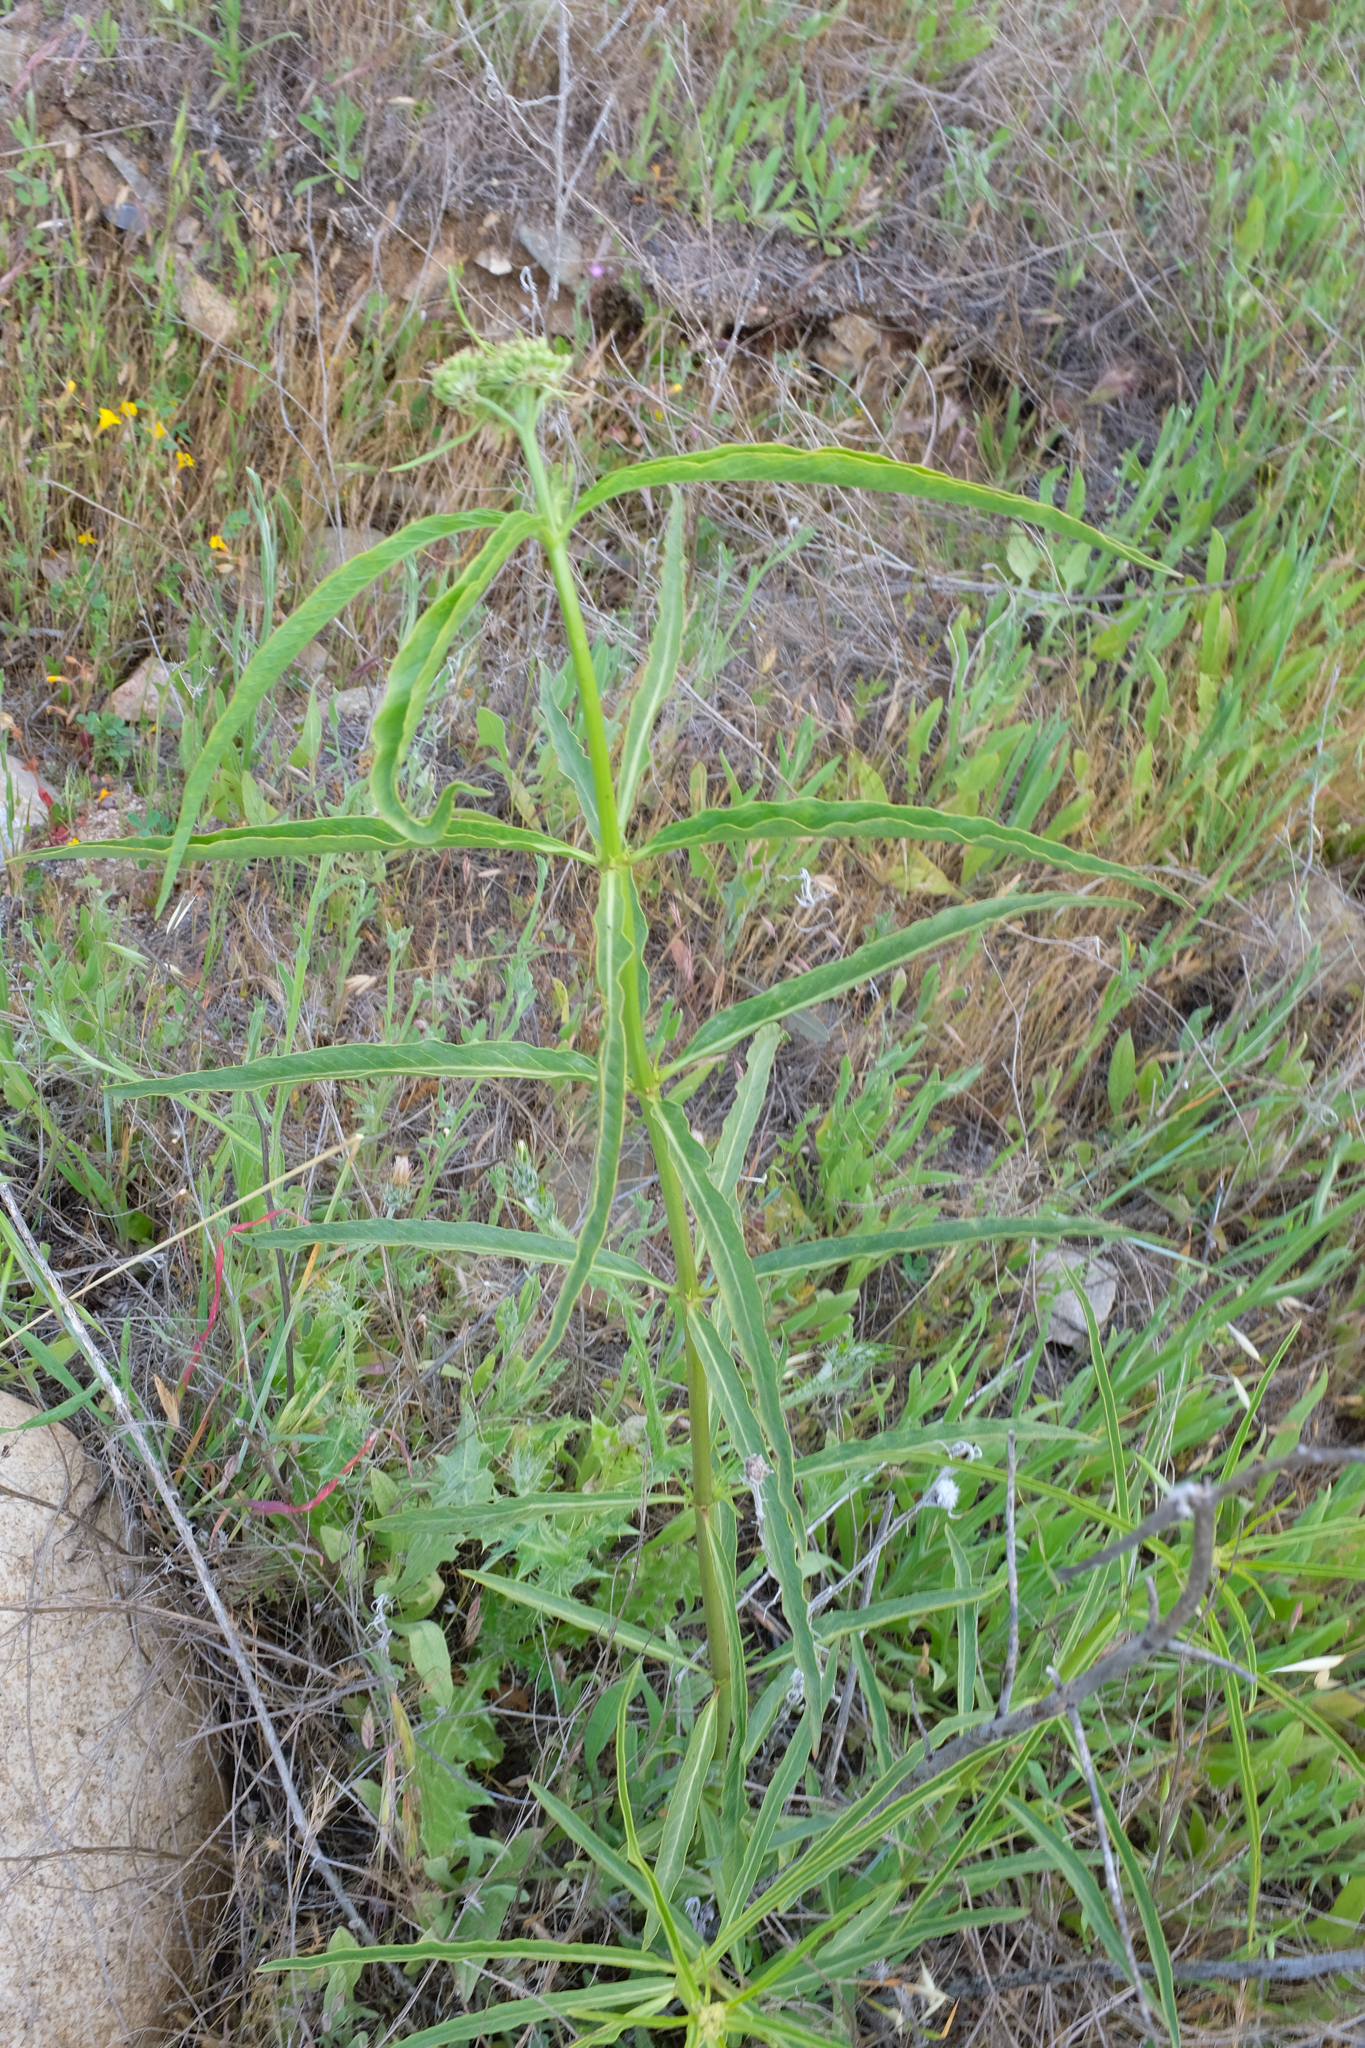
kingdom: Plantae
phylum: Tracheophyta
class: Magnoliopsida
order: Gentianales
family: Apocynaceae
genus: Asclepias
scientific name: Asclepias fascicularis
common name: Mexican milkweed
